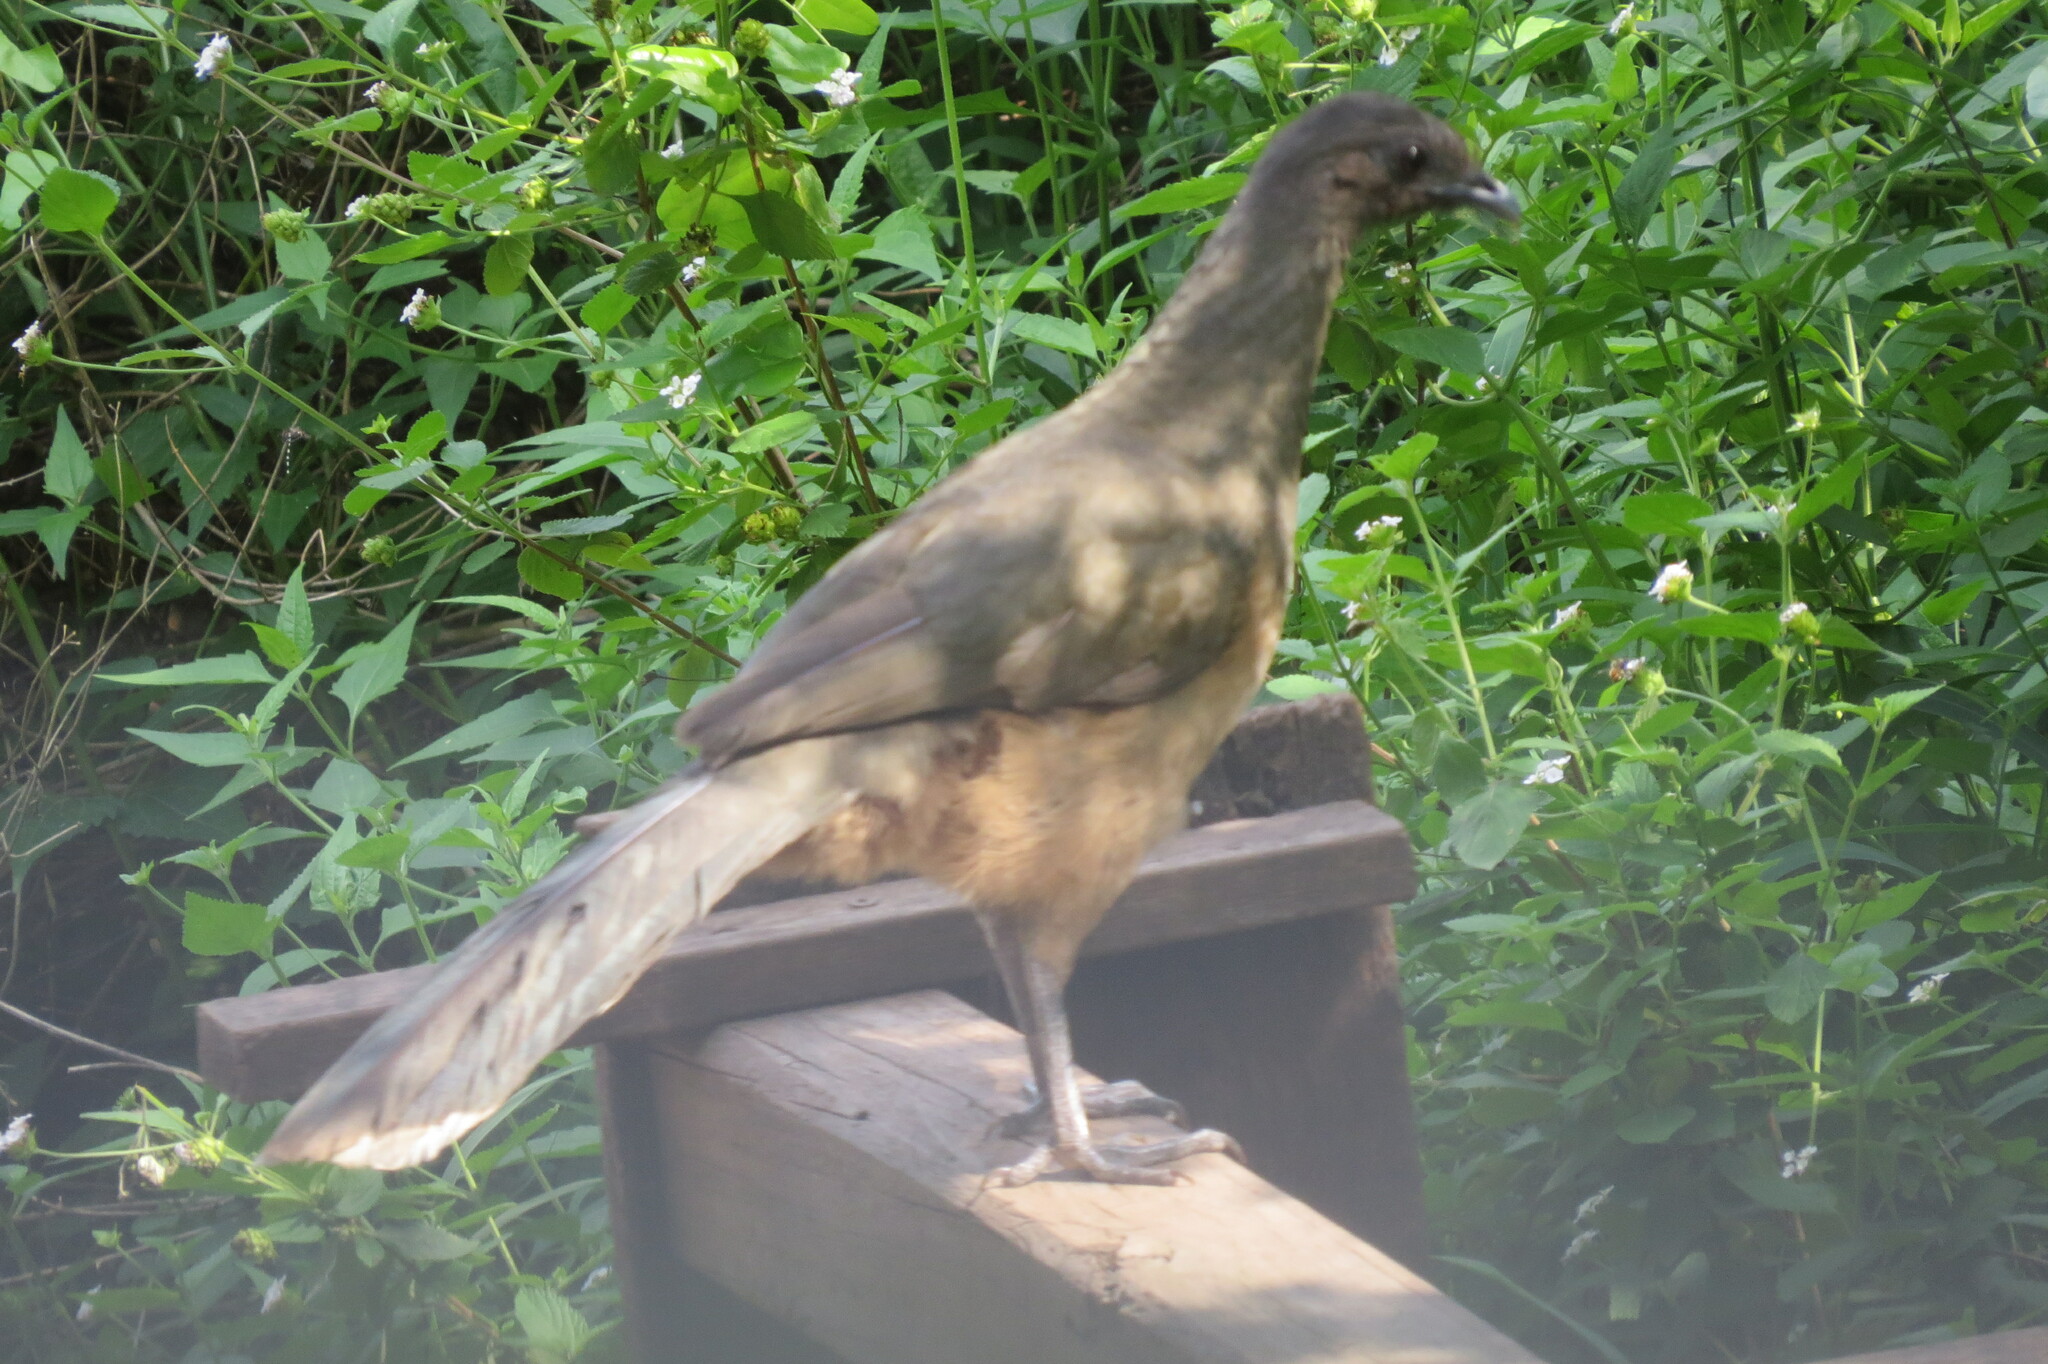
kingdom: Animalia
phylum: Chordata
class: Aves
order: Galliformes
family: Cracidae
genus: Ortalis
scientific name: Ortalis vetula
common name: Plain chachalaca
